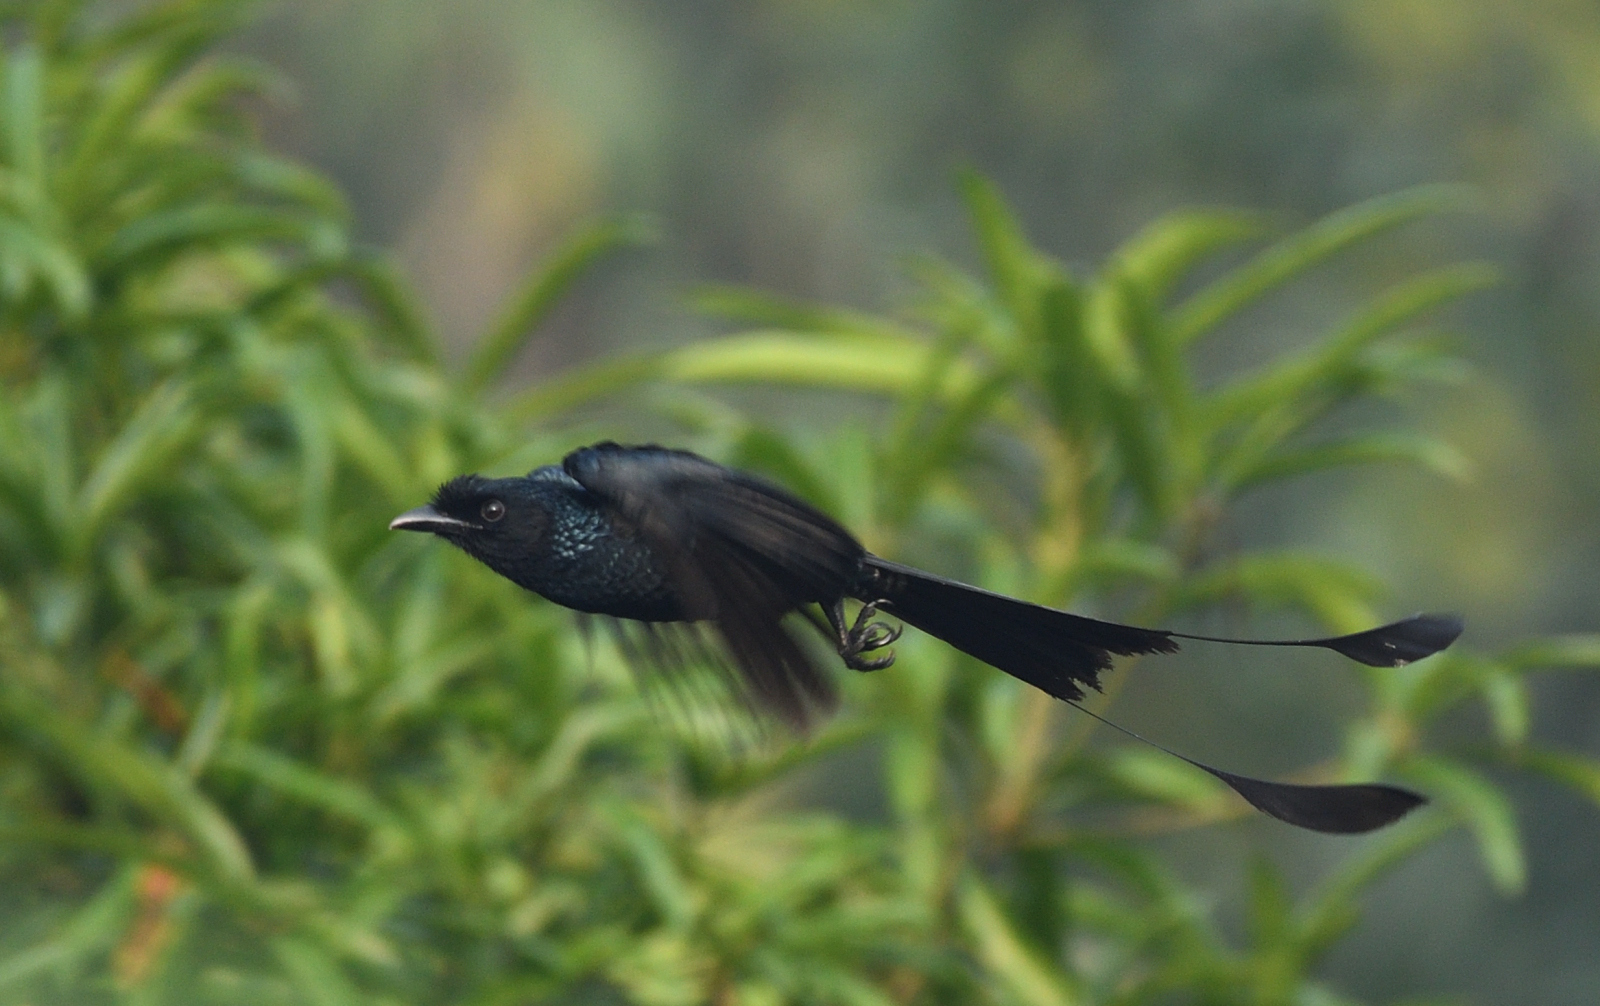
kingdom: Animalia
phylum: Chordata
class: Aves
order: Passeriformes
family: Dicruridae
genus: Dicrurus
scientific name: Dicrurus paradiseus
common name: Greater racket-tailed drongo
